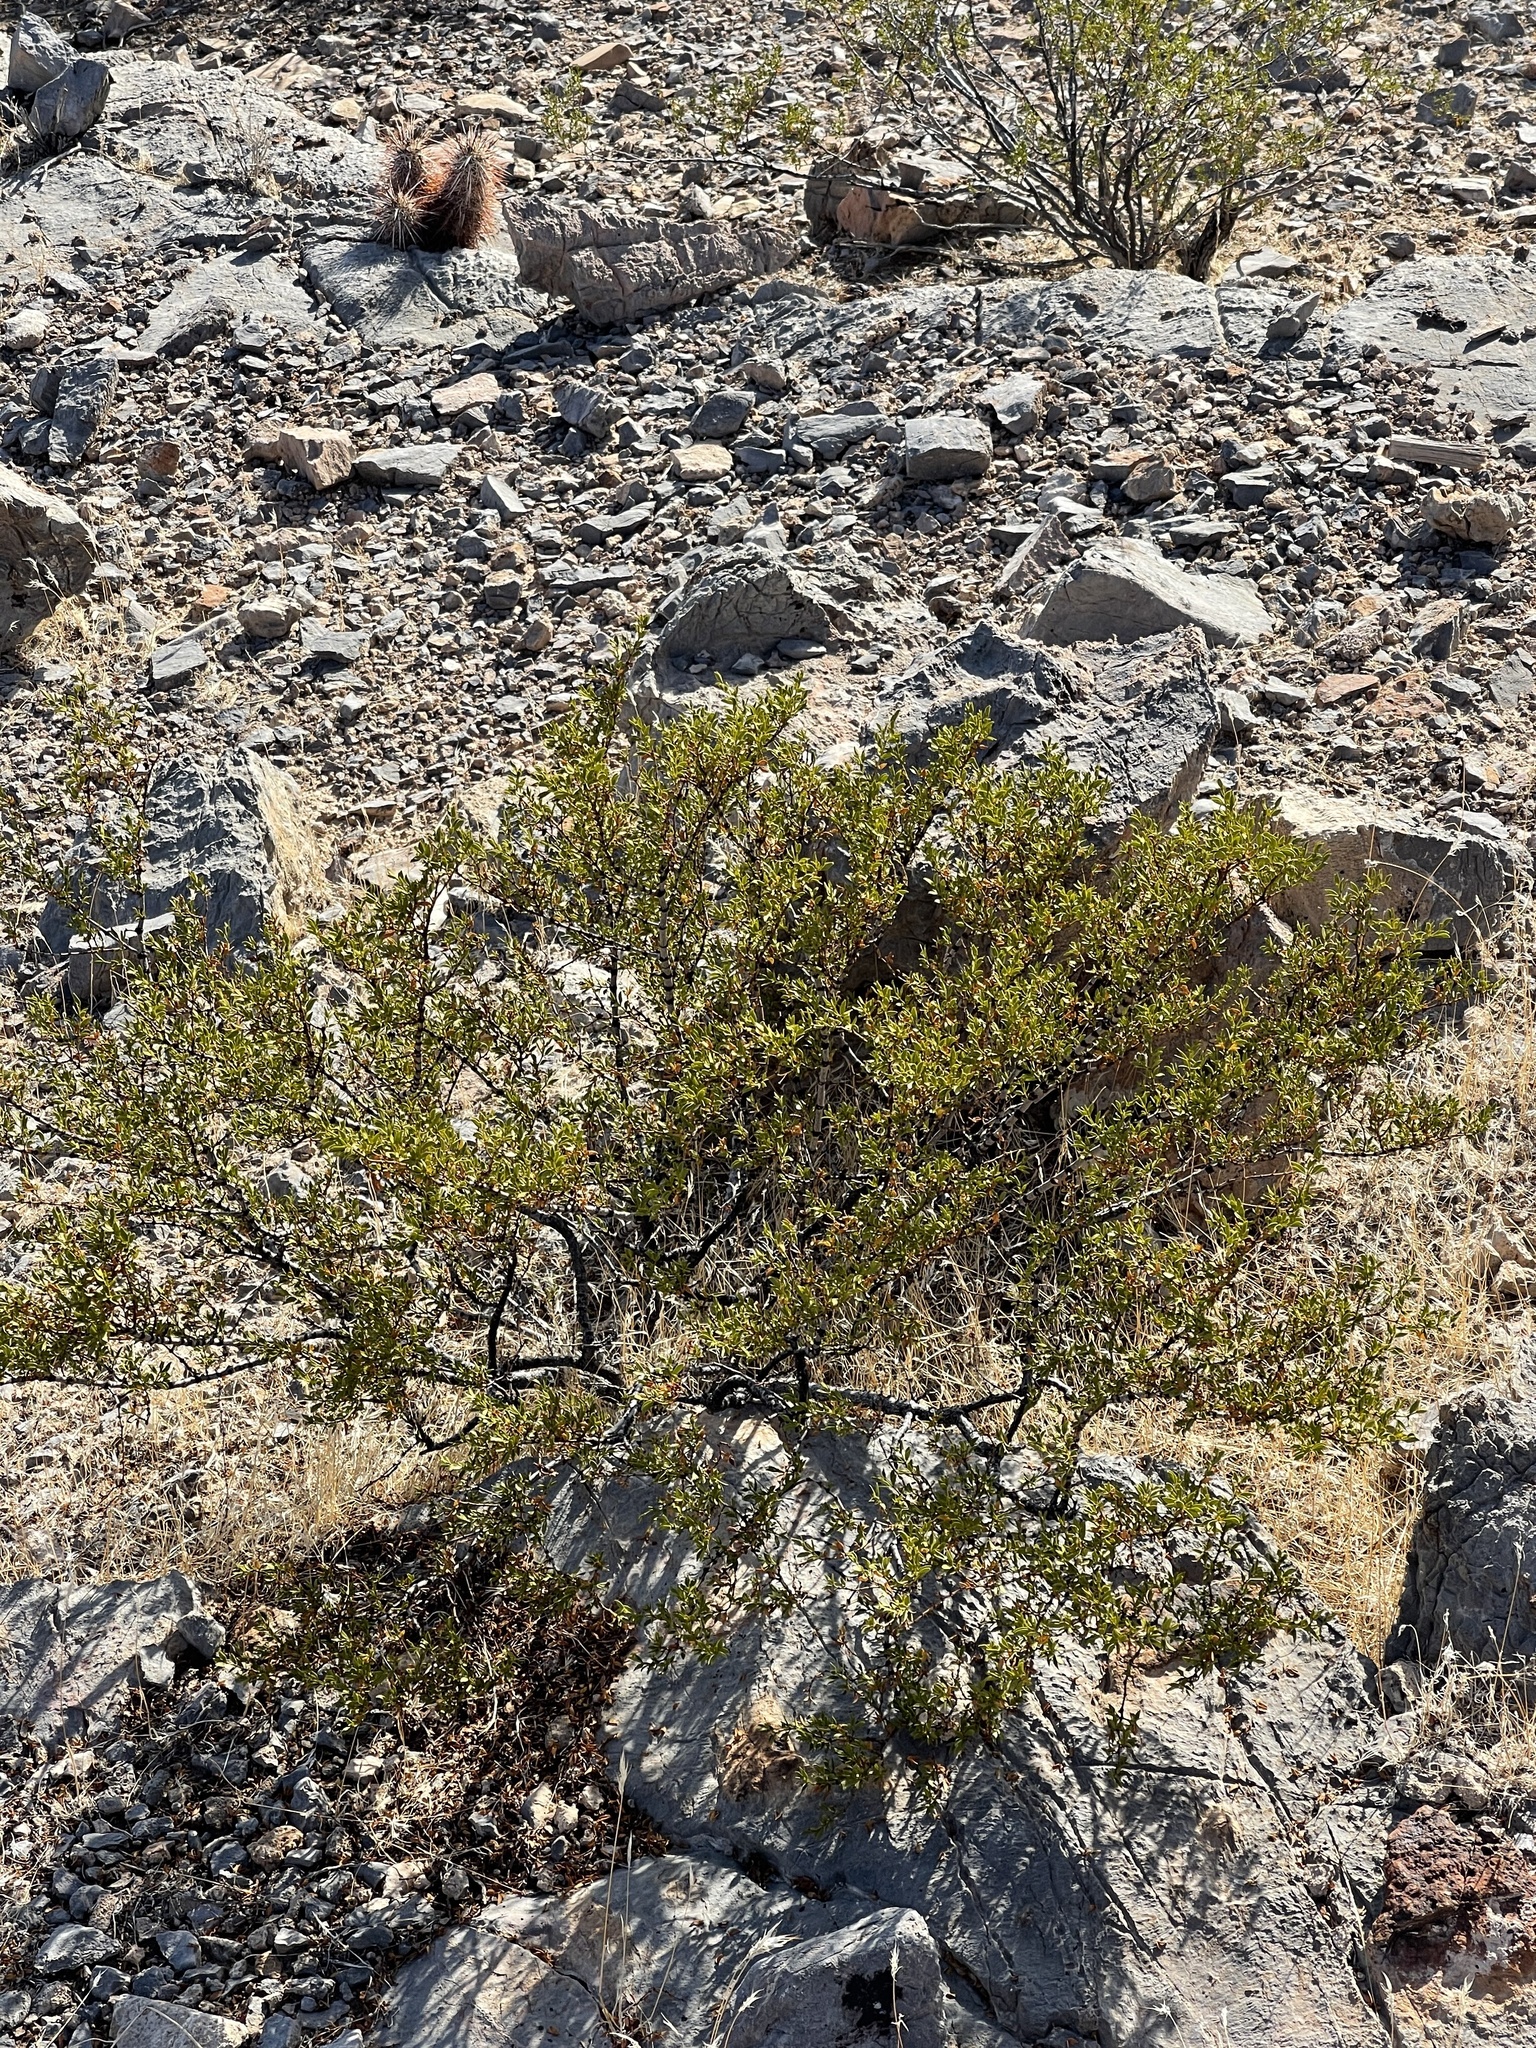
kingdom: Plantae
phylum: Tracheophyta
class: Magnoliopsida
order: Zygophyllales
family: Zygophyllaceae
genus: Larrea
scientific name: Larrea tridentata
